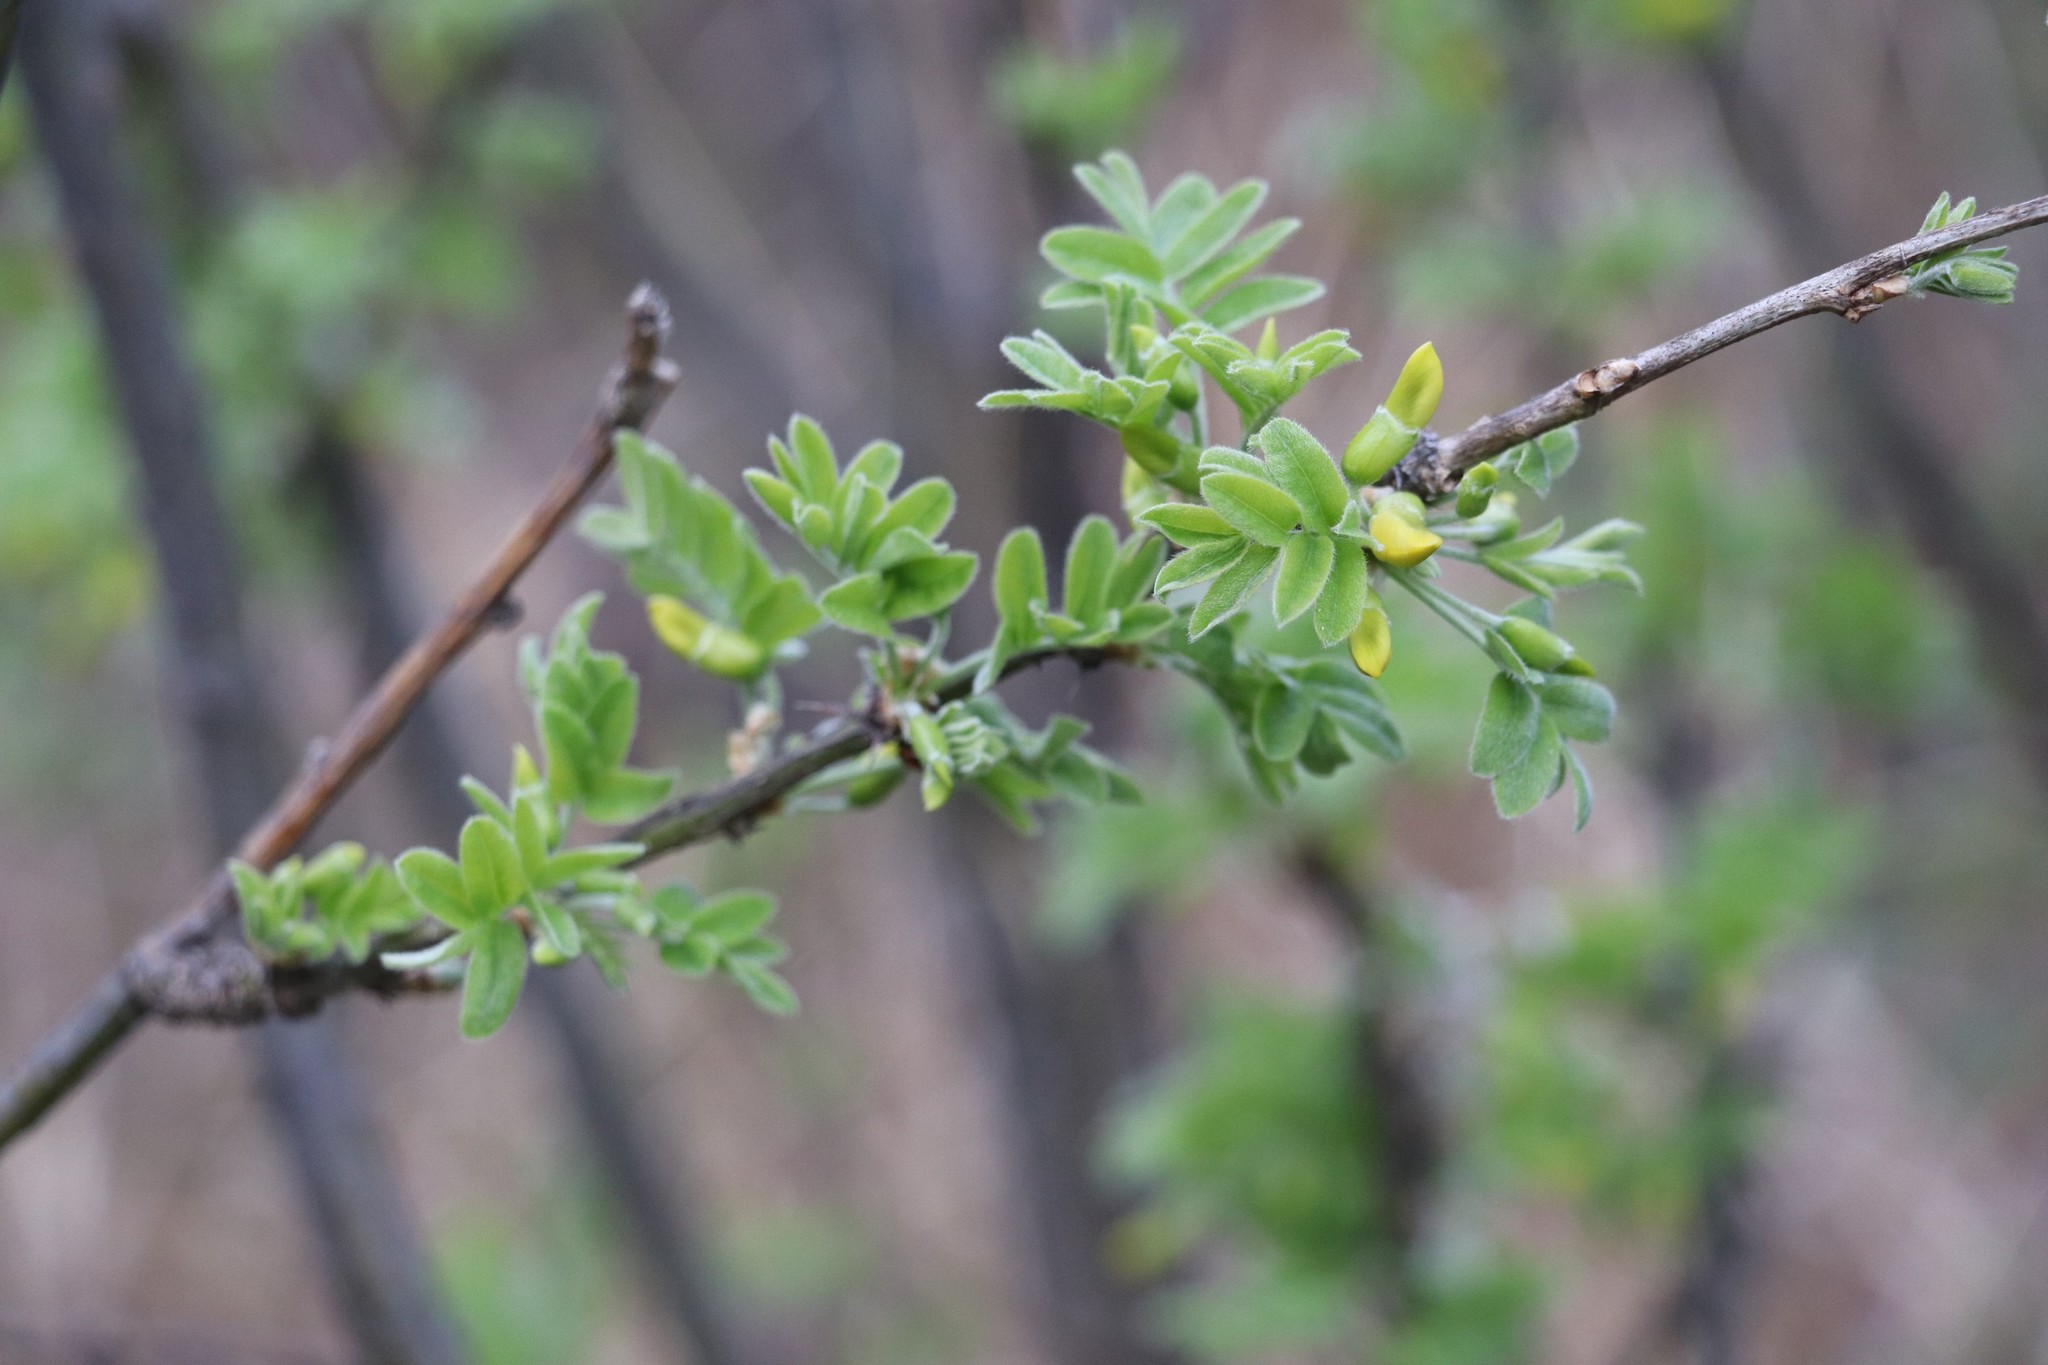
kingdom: Plantae
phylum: Tracheophyta
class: Magnoliopsida
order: Fabales
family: Fabaceae
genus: Caragana
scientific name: Caragana arborescens
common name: Siberian peashrub
